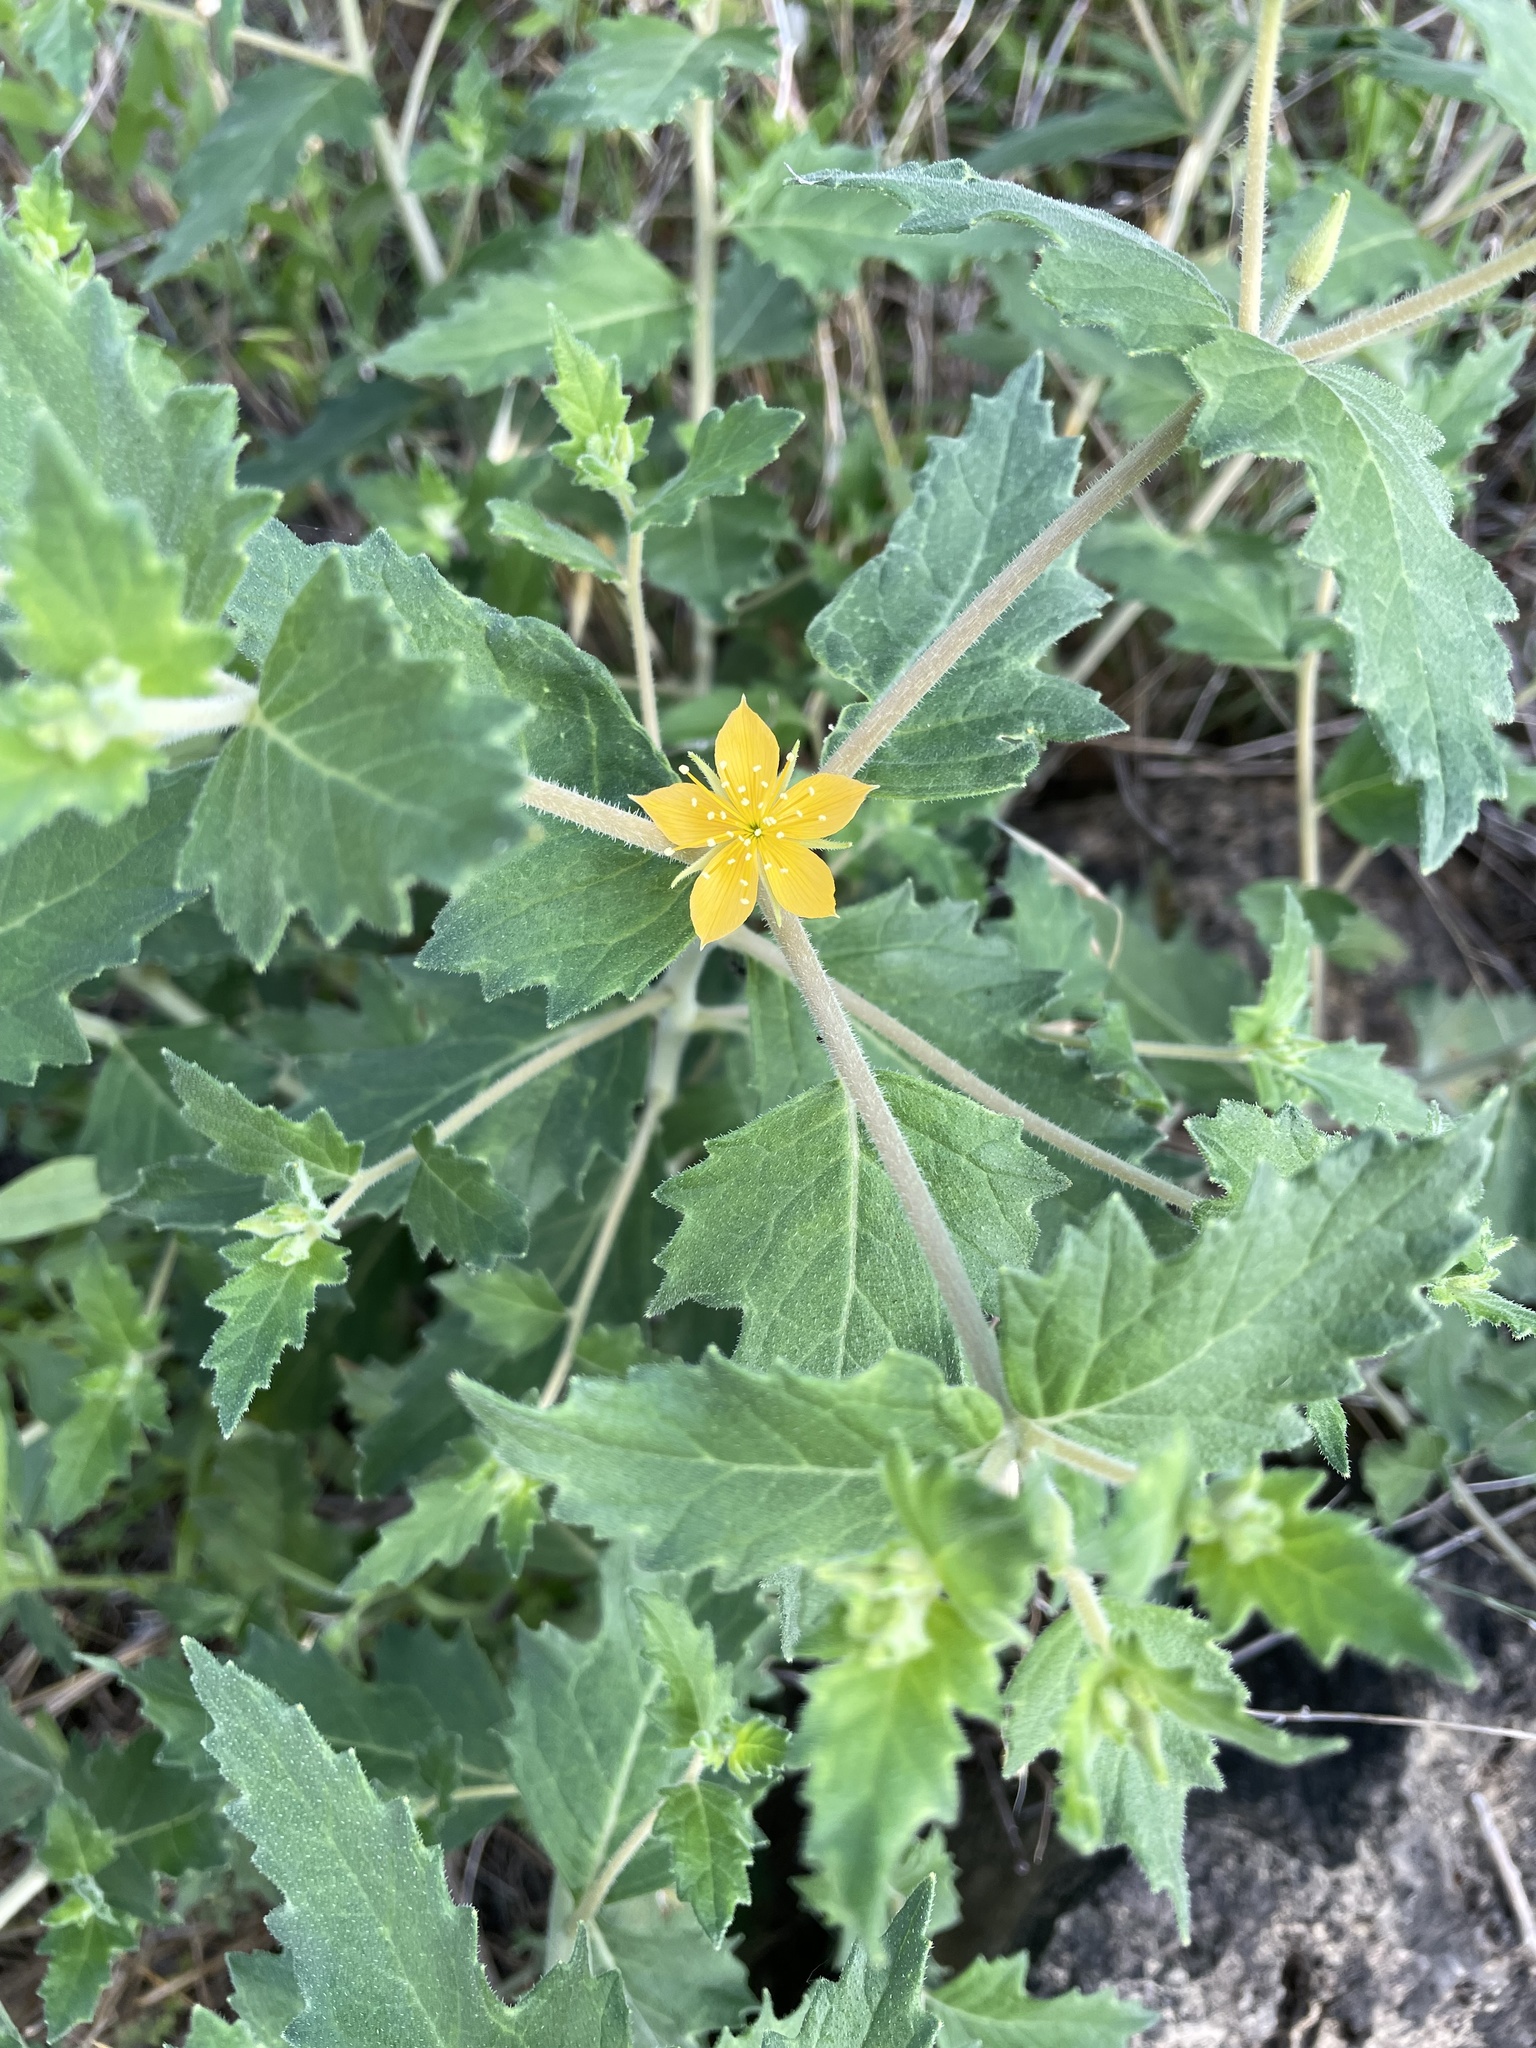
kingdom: Plantae
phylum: Tracheophyta
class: Magnoliopsida
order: Cornales
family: Loasaceae
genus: Mentzelia
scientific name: Mentzelia oligosperma
